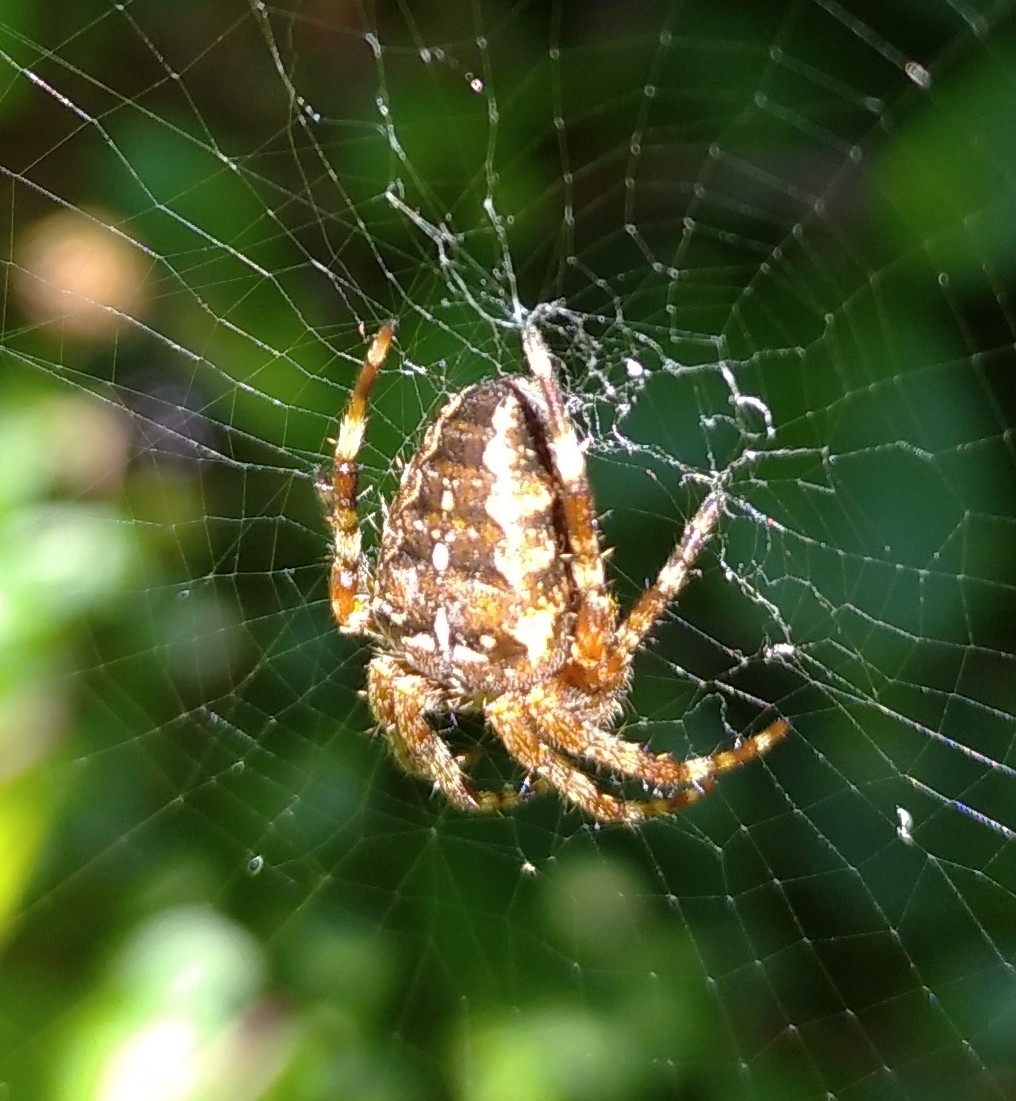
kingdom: Animalia
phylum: Arthropoda
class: Arachnida
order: Araneae
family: Araneidae
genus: Araneus
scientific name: Araneus diadematus
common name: Cross orbweaver
